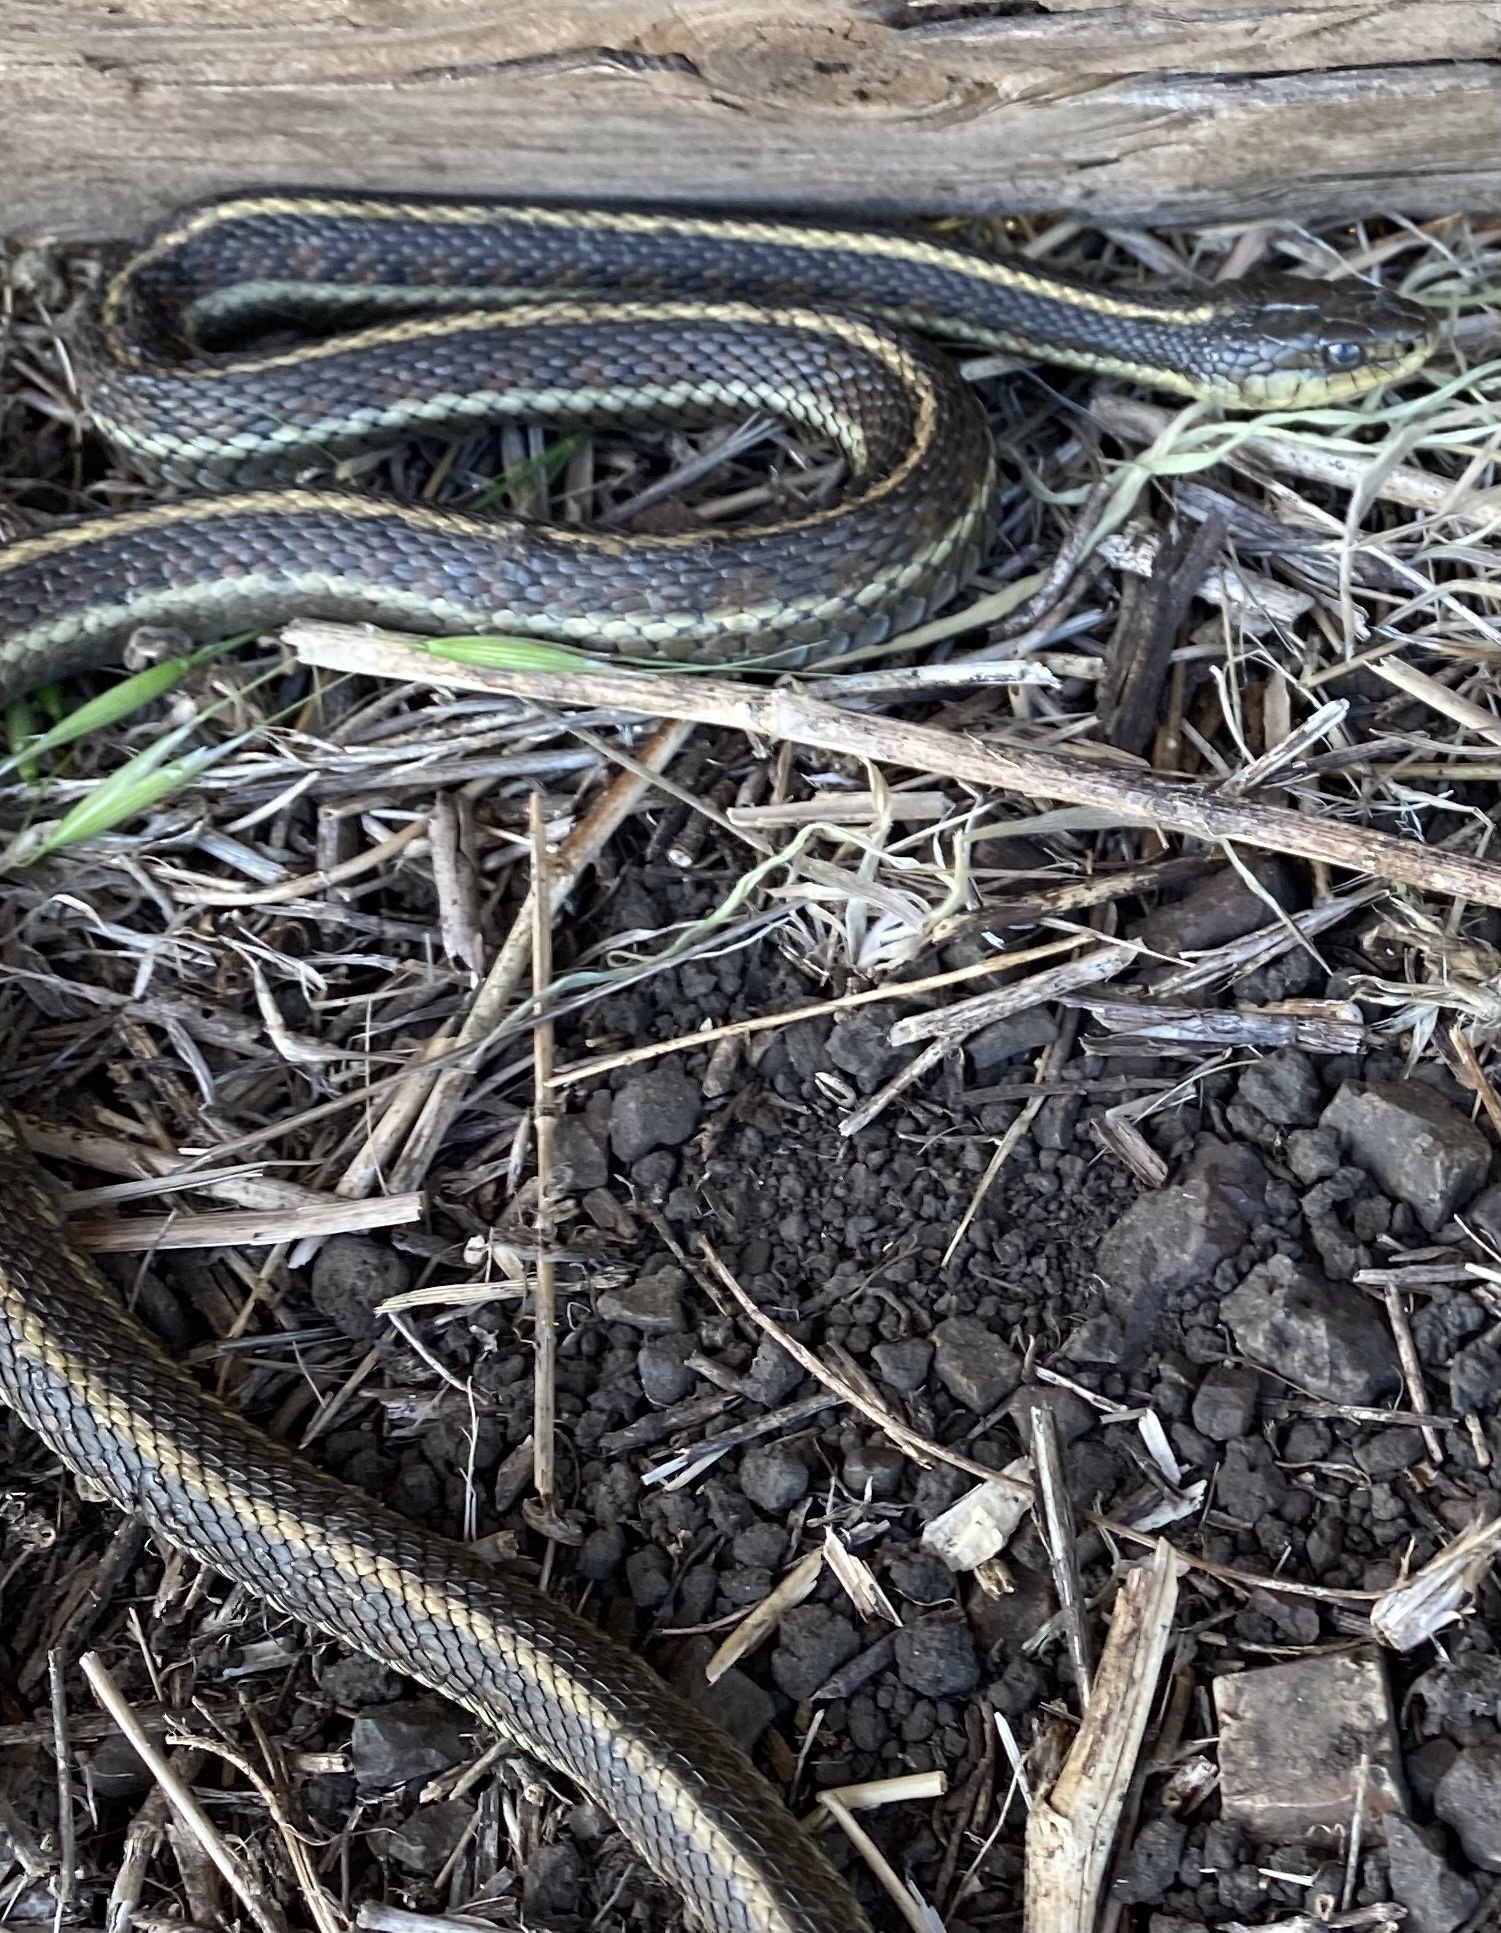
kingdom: Animalia
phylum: Chordata
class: Squamata
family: Colubridae
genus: Thamnophis
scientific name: Thamnophis elegans
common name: Western terrestrial garter snake
